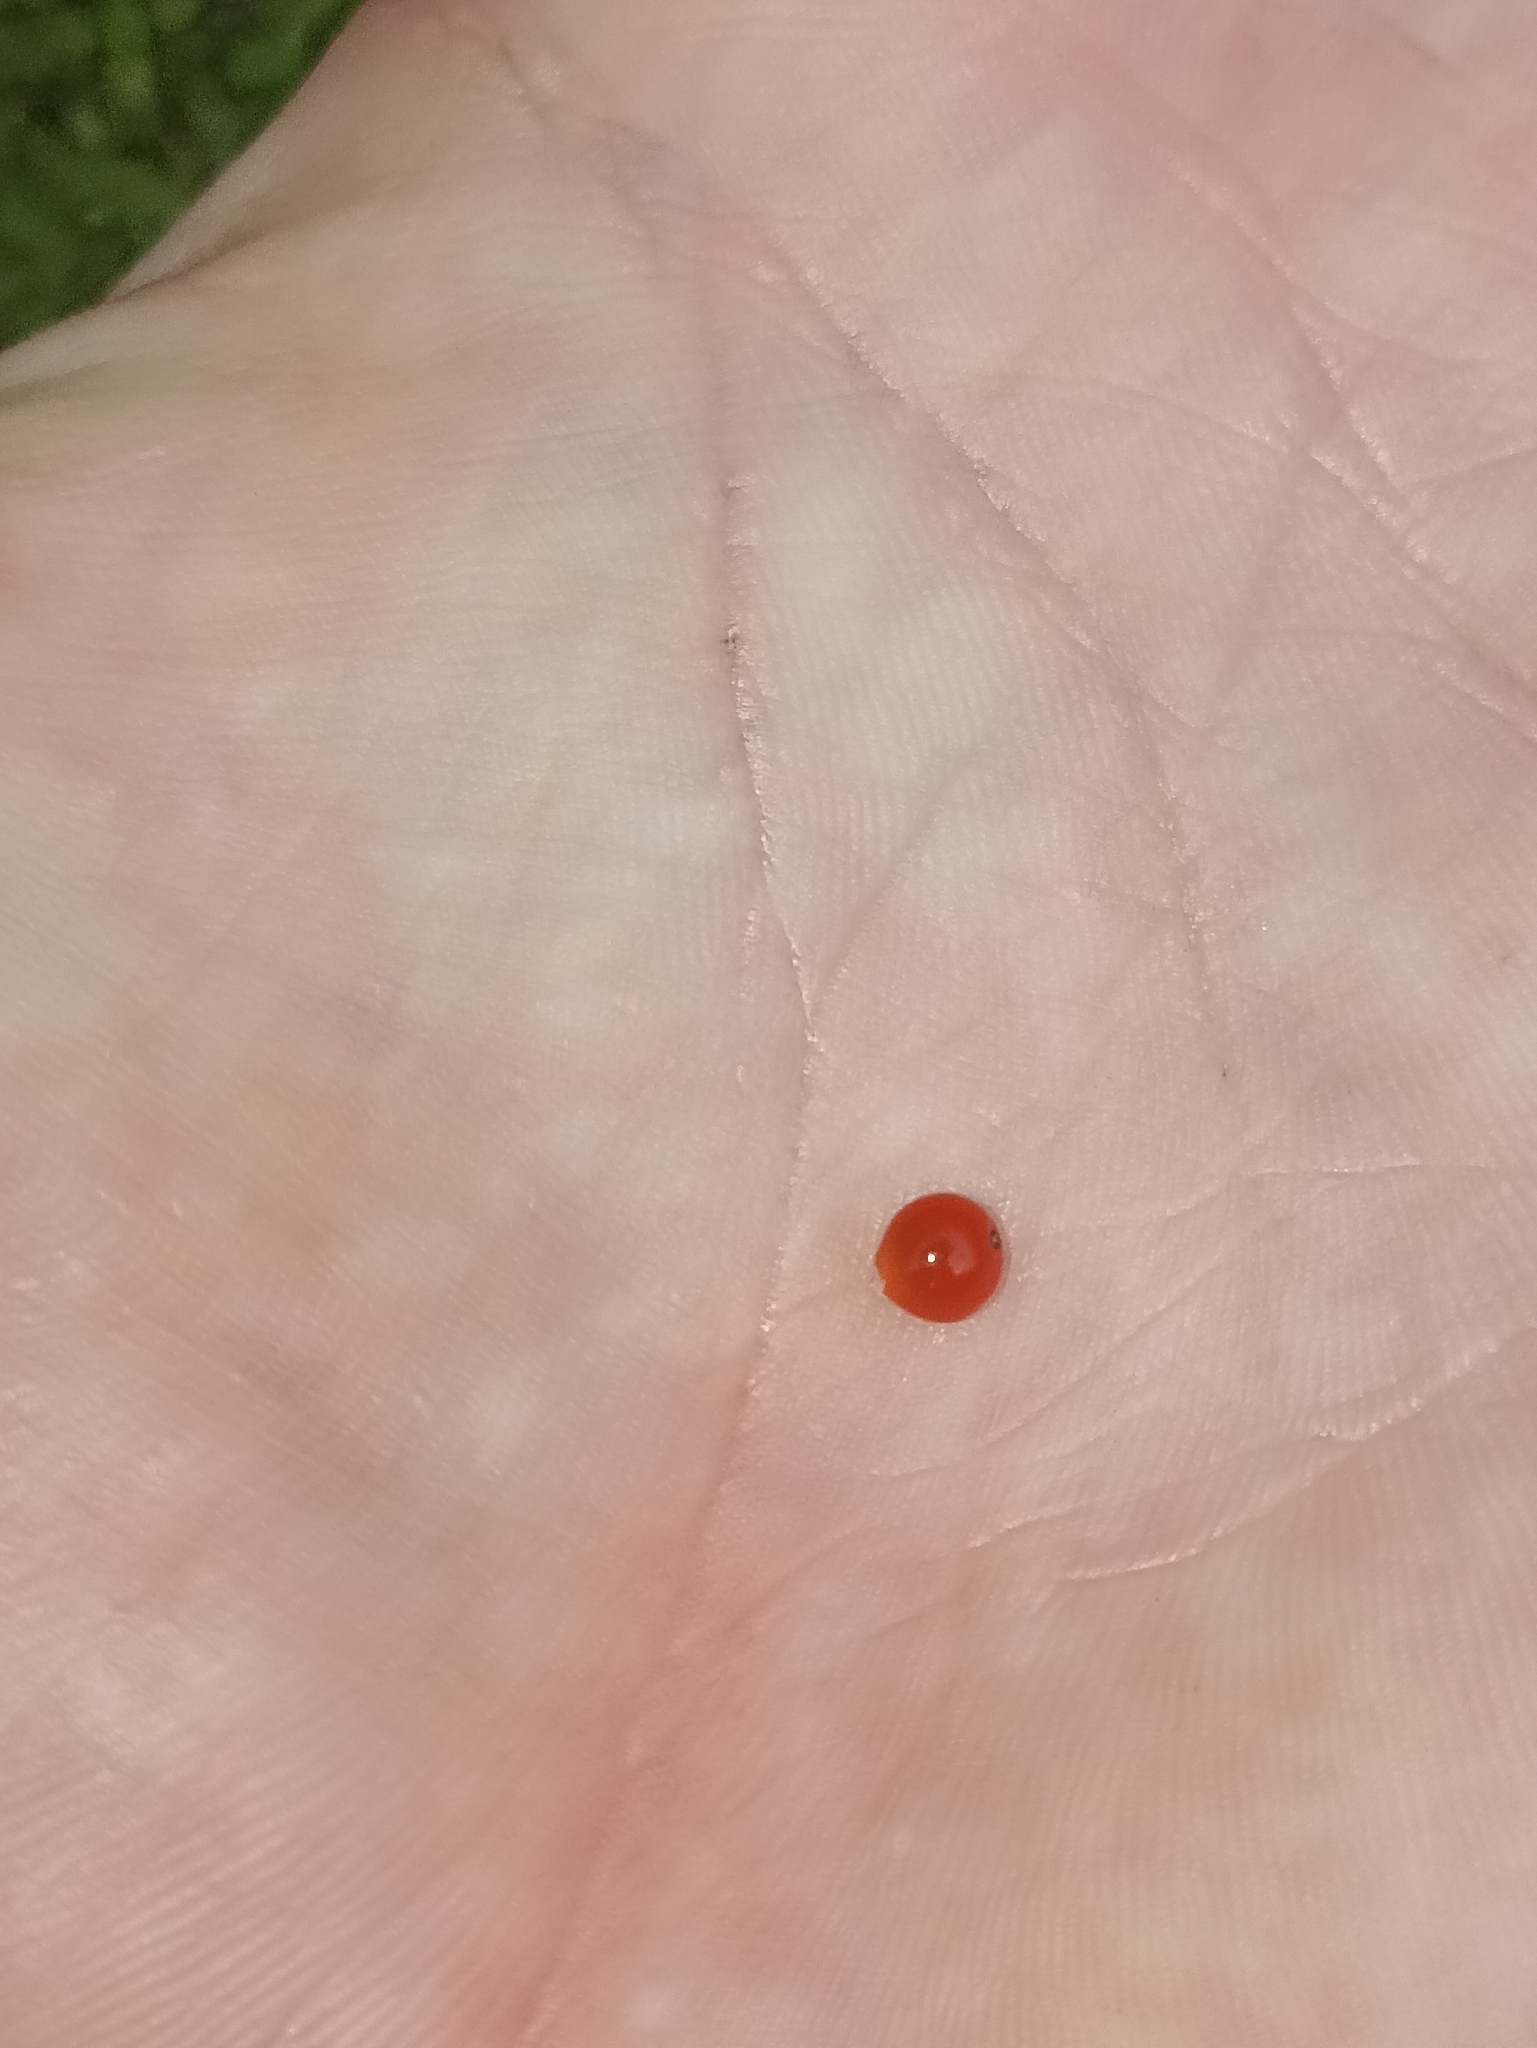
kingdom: Plantae
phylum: Tracheophyta
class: Magnoliopsida
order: Gentianales
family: Rubiaceae
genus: Nertera
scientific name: Nertera granadensis
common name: Beadplant
